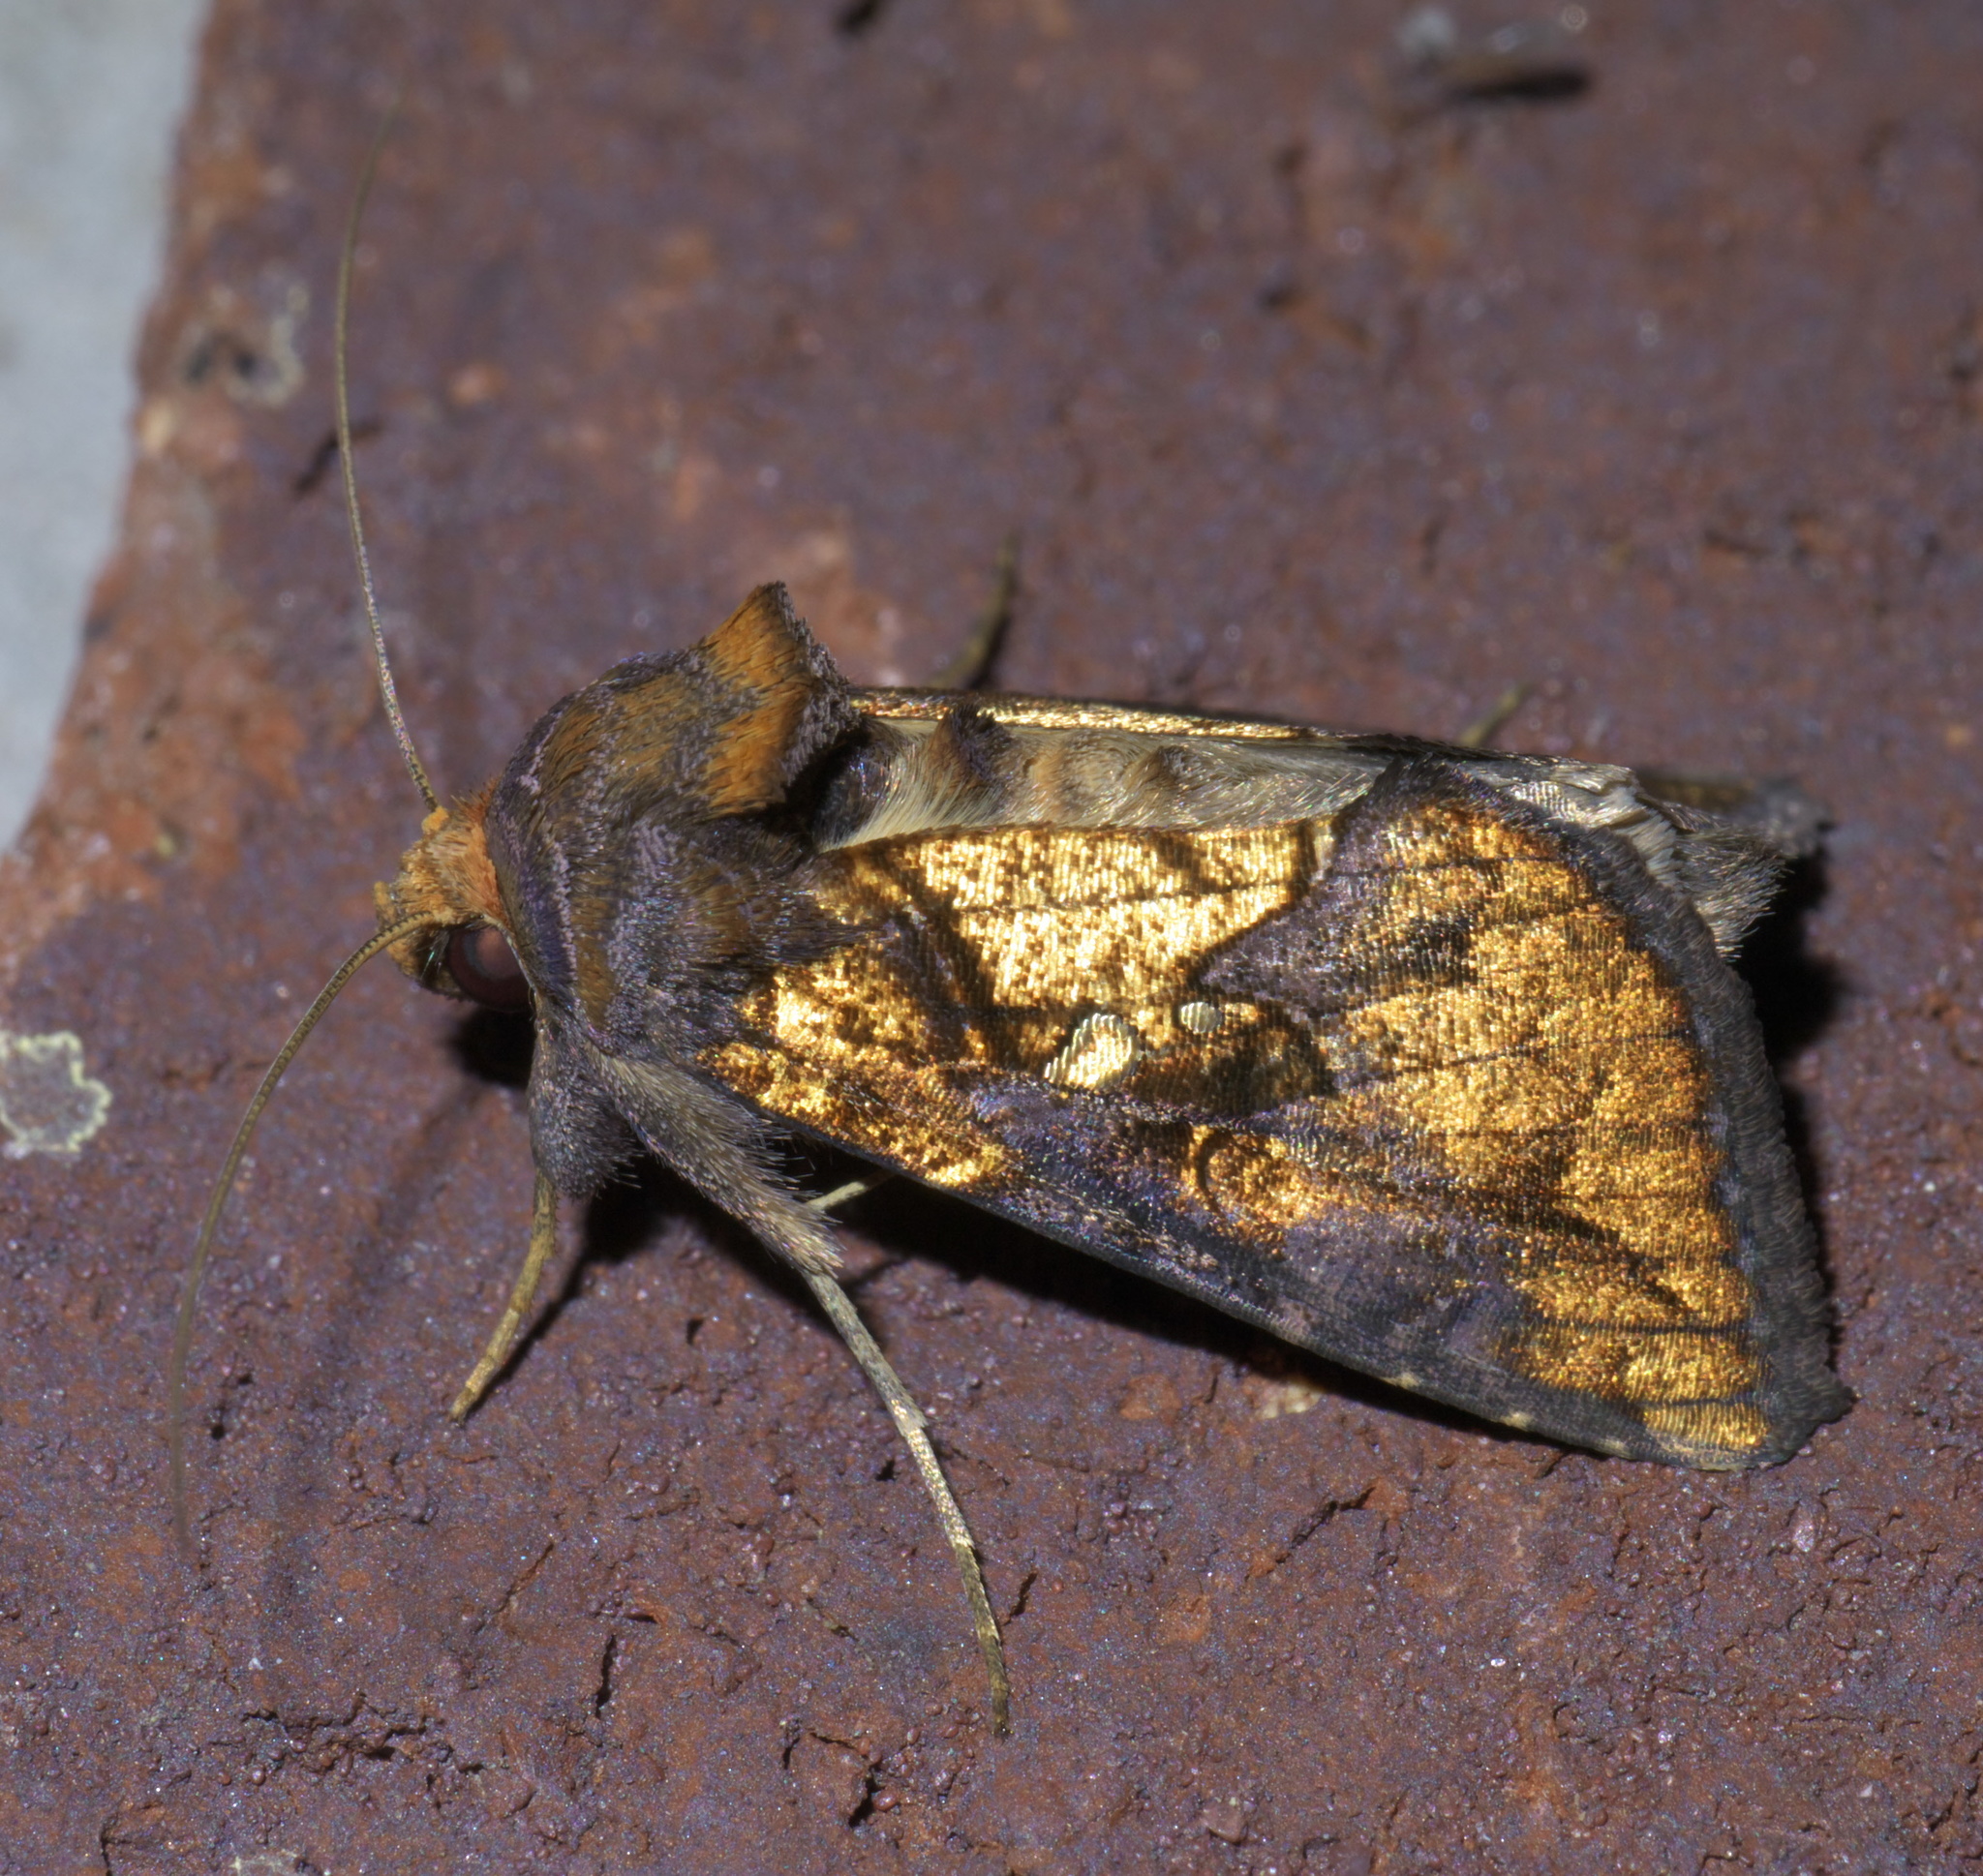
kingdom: Animalia
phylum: Arthropoda
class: Insecta
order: Lepidoptera
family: Noctuidae
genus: Argyrogramma
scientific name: Argyrogramma verruca
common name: Golden looper moth
